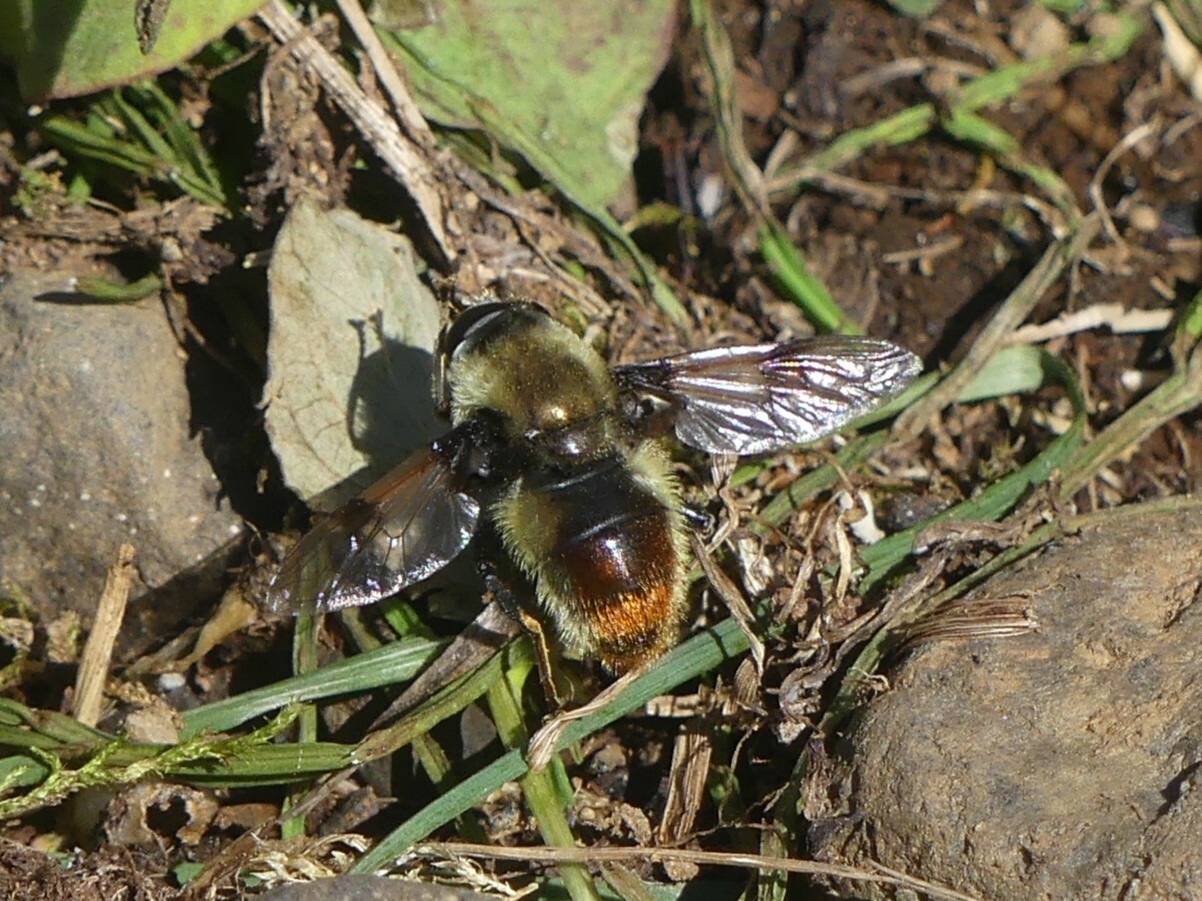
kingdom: Animalia
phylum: Arthropoda
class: Insecta
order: Diptera
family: Syrphidae
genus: Sericomyia
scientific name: Sericomyia flagrans
